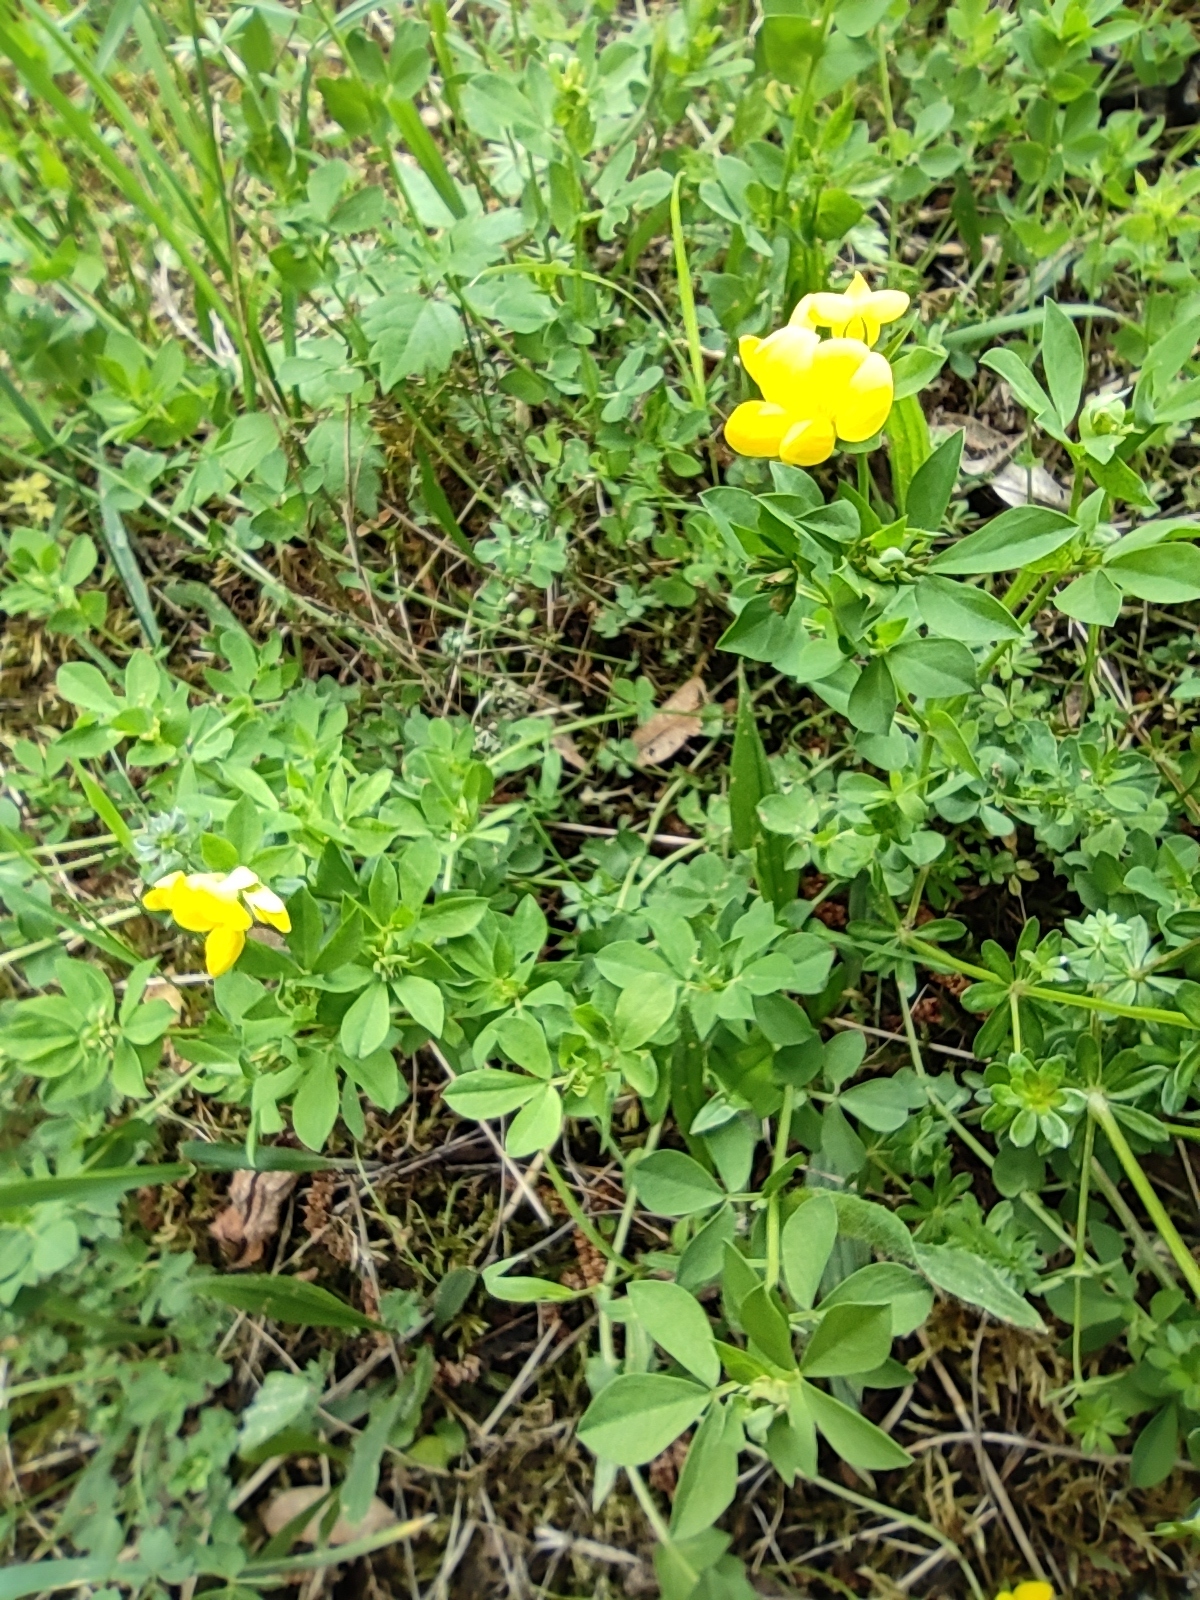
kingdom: Plantae
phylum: Tracheophyta
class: Magnoliopsida
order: Fabales
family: Fabaceae
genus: Lotus
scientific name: Lotus corniculatus
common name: Common bird's-foot-trefoil
